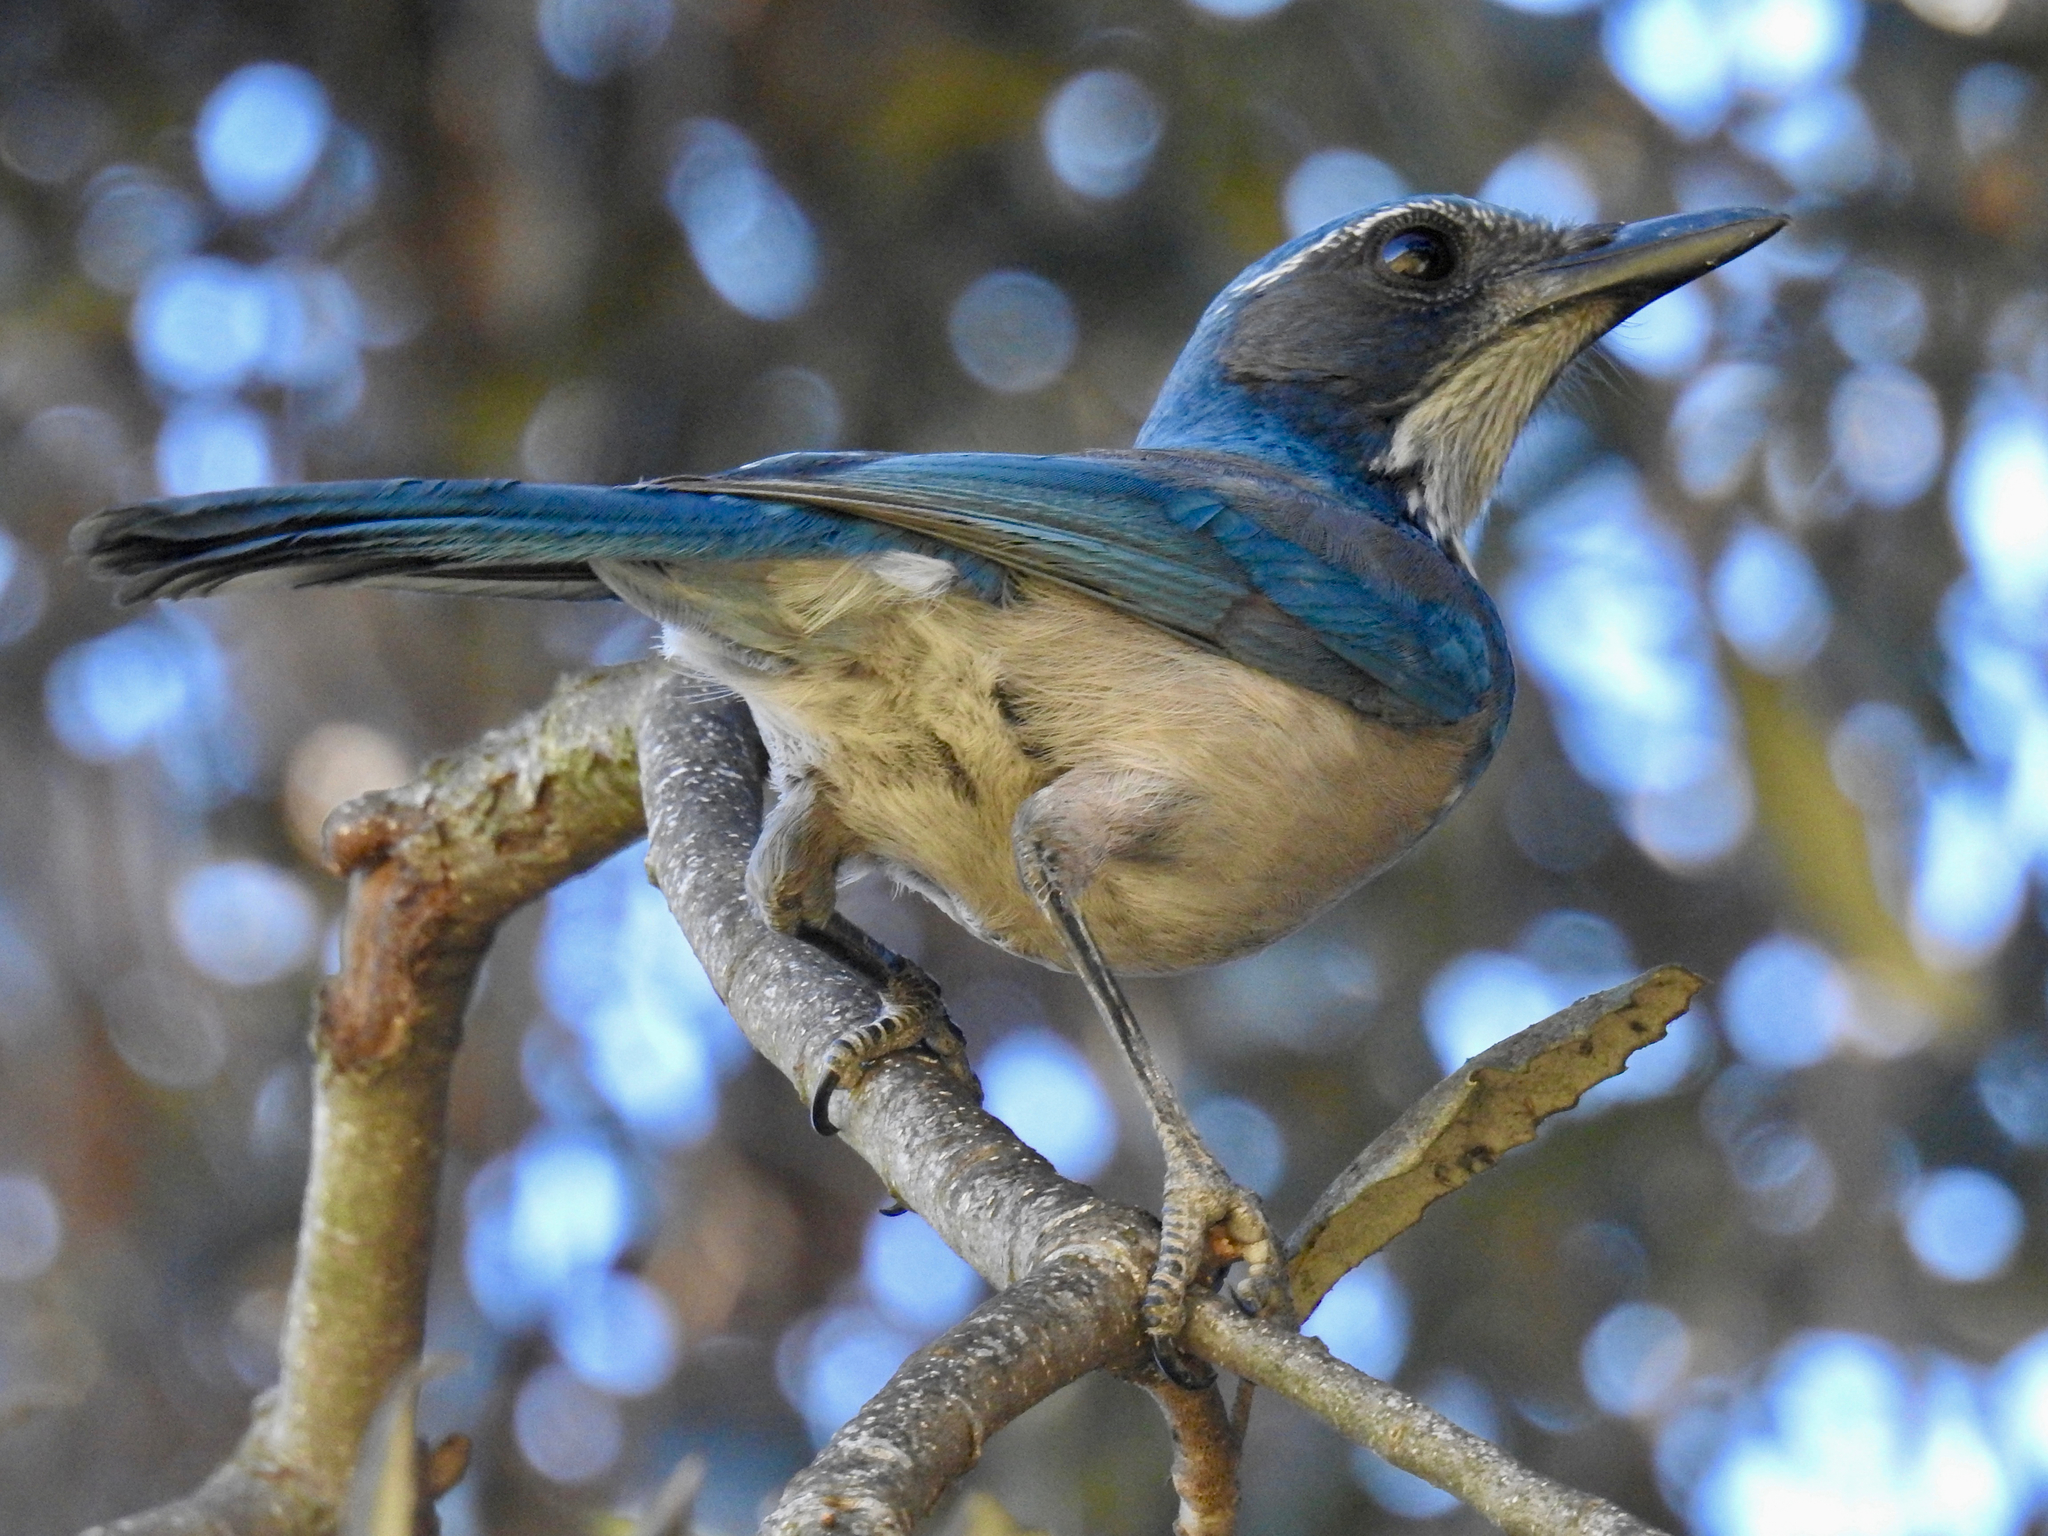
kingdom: Animalia
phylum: Chordata
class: Aves
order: Passeriformes
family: Corvidae
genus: Aphelocoma
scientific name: Aphelocoma californica
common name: California scrub-jay
